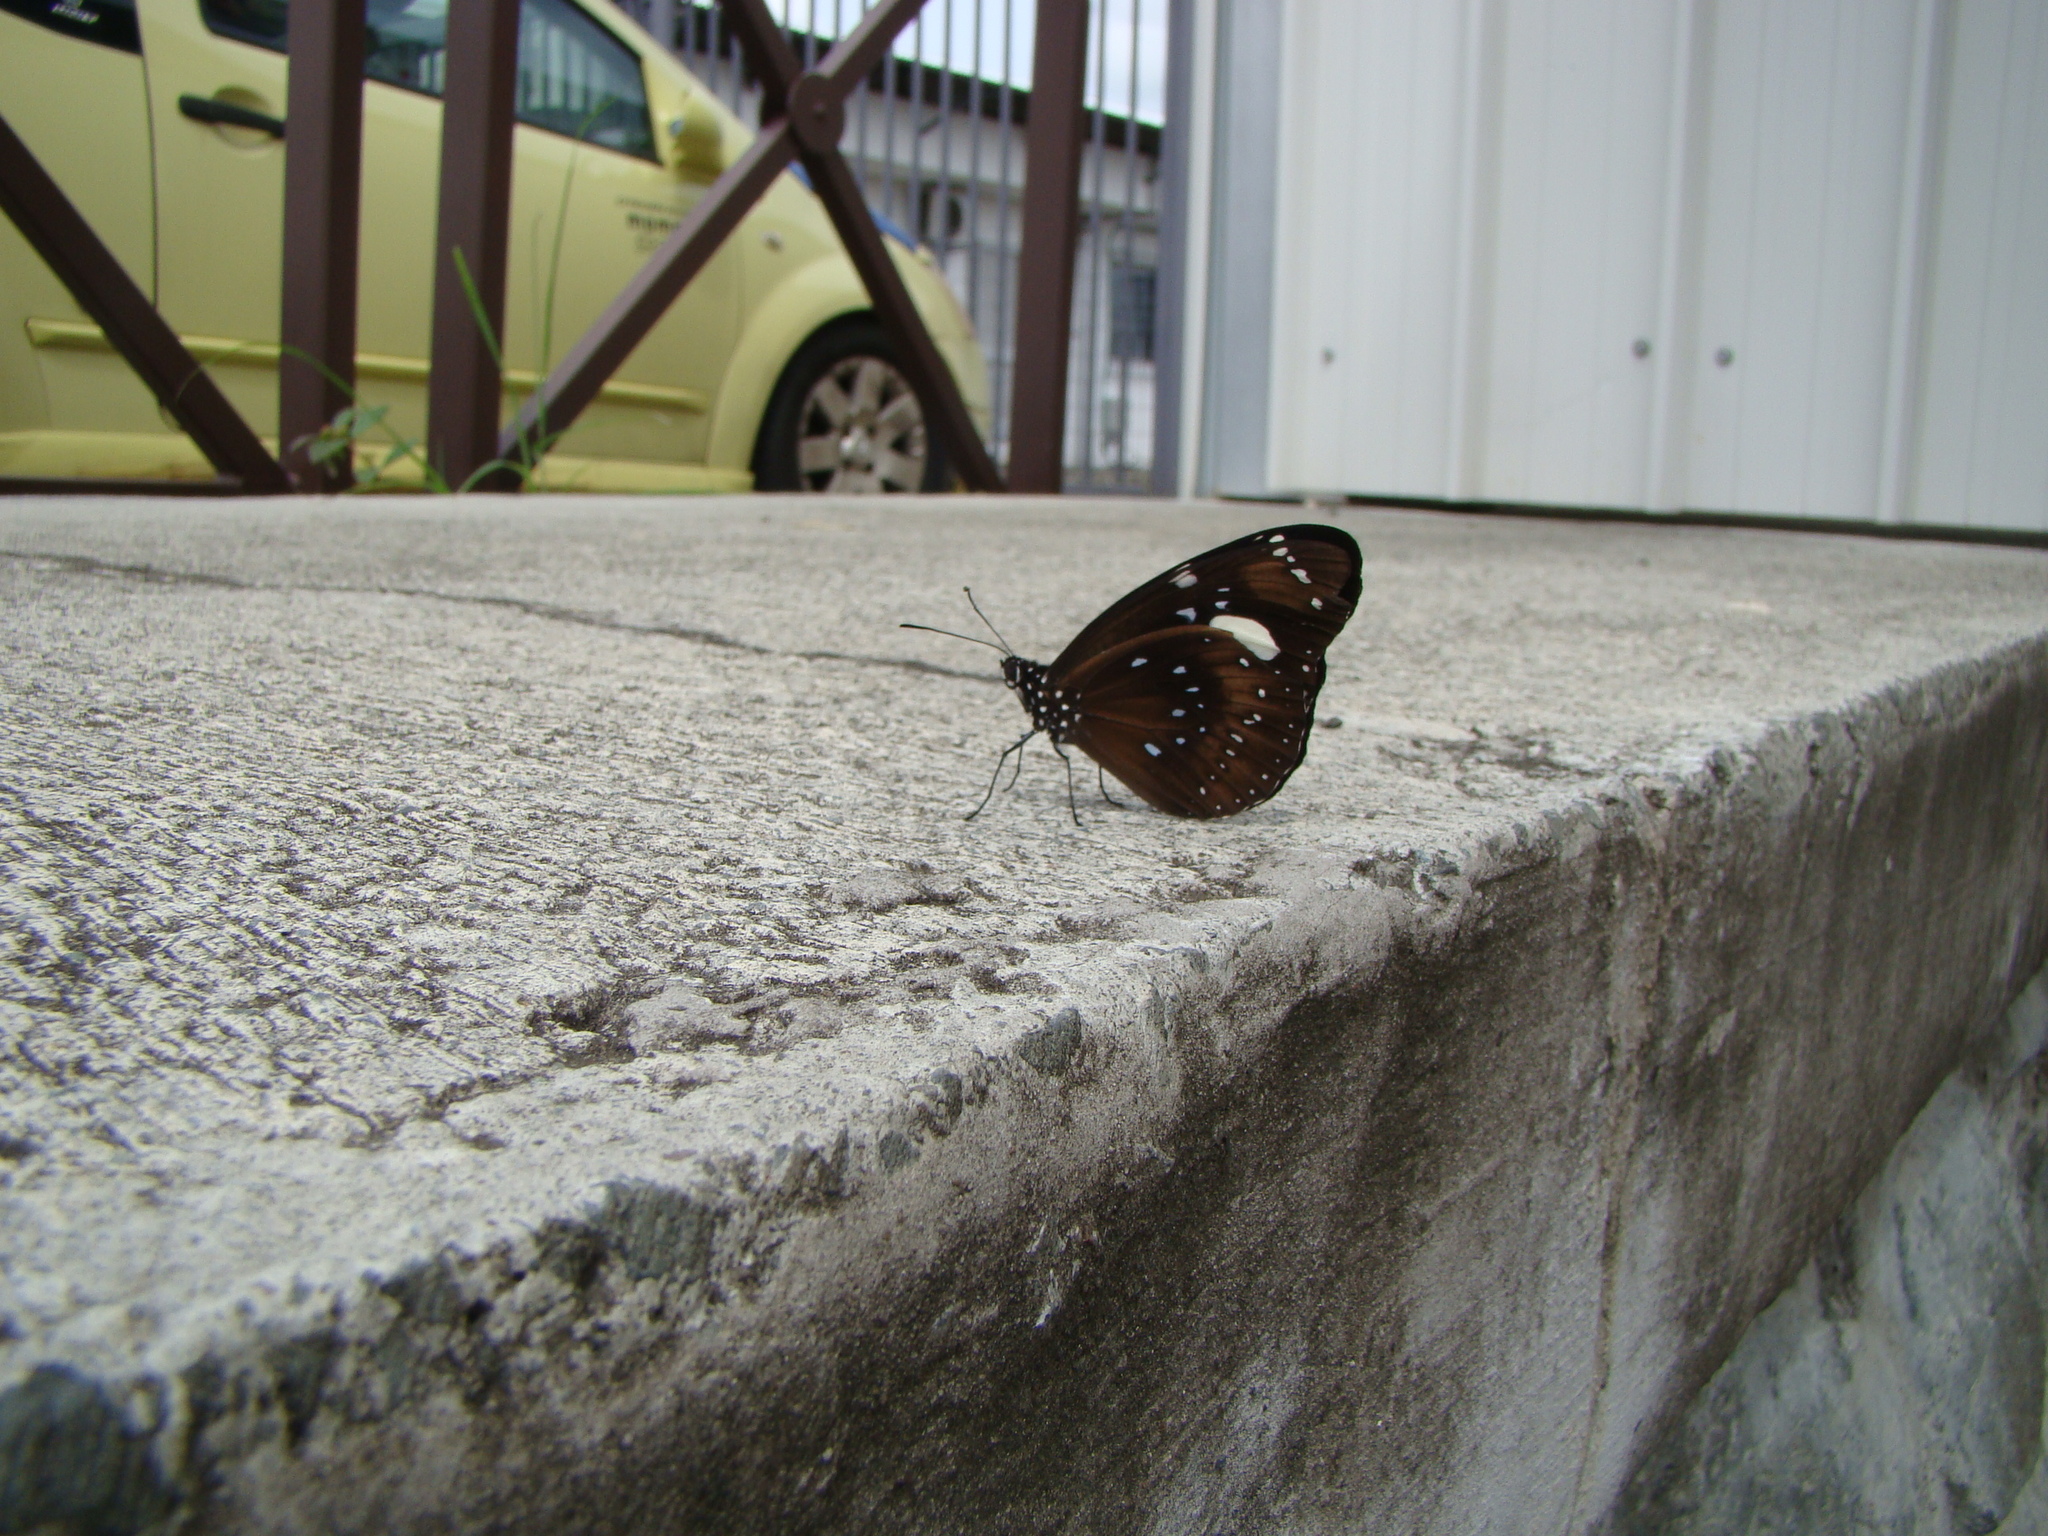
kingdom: Animalia
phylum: Arthropoda
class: Insecta
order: Lepidoptera
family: Nymphalidae
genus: Euploea
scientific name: Euploea lewinii
